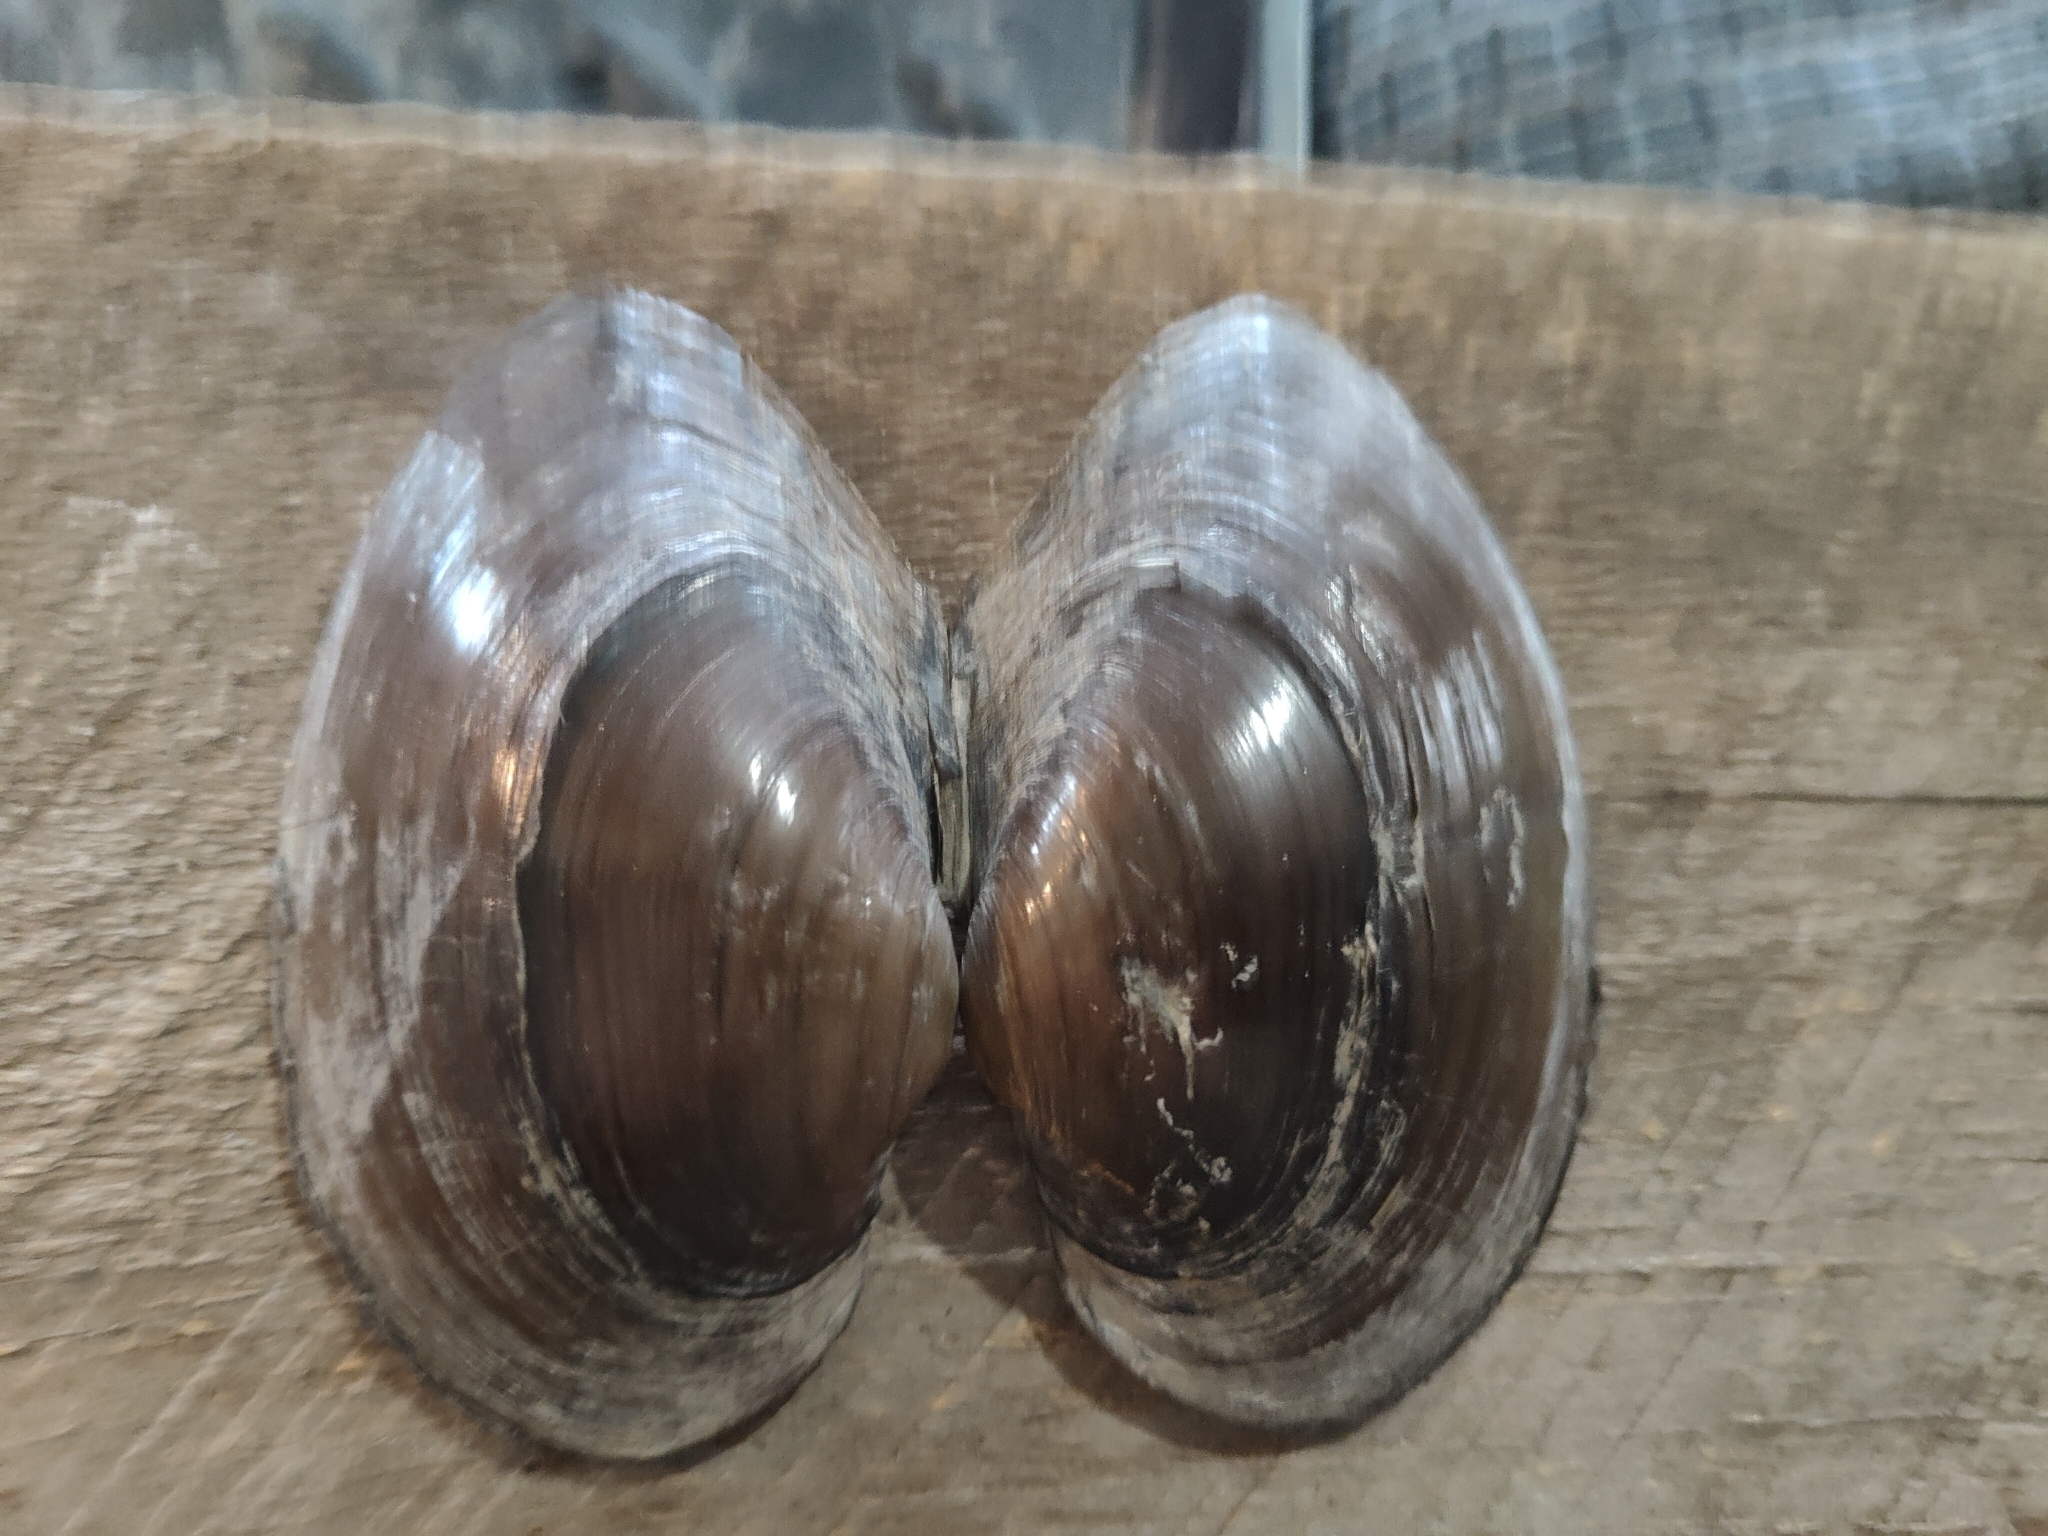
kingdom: Animalia
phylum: Mollusca
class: Bivalvia
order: Unionida
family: Unionidae
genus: Pyganodon
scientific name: Pyganodon grandis
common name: Giant floater
